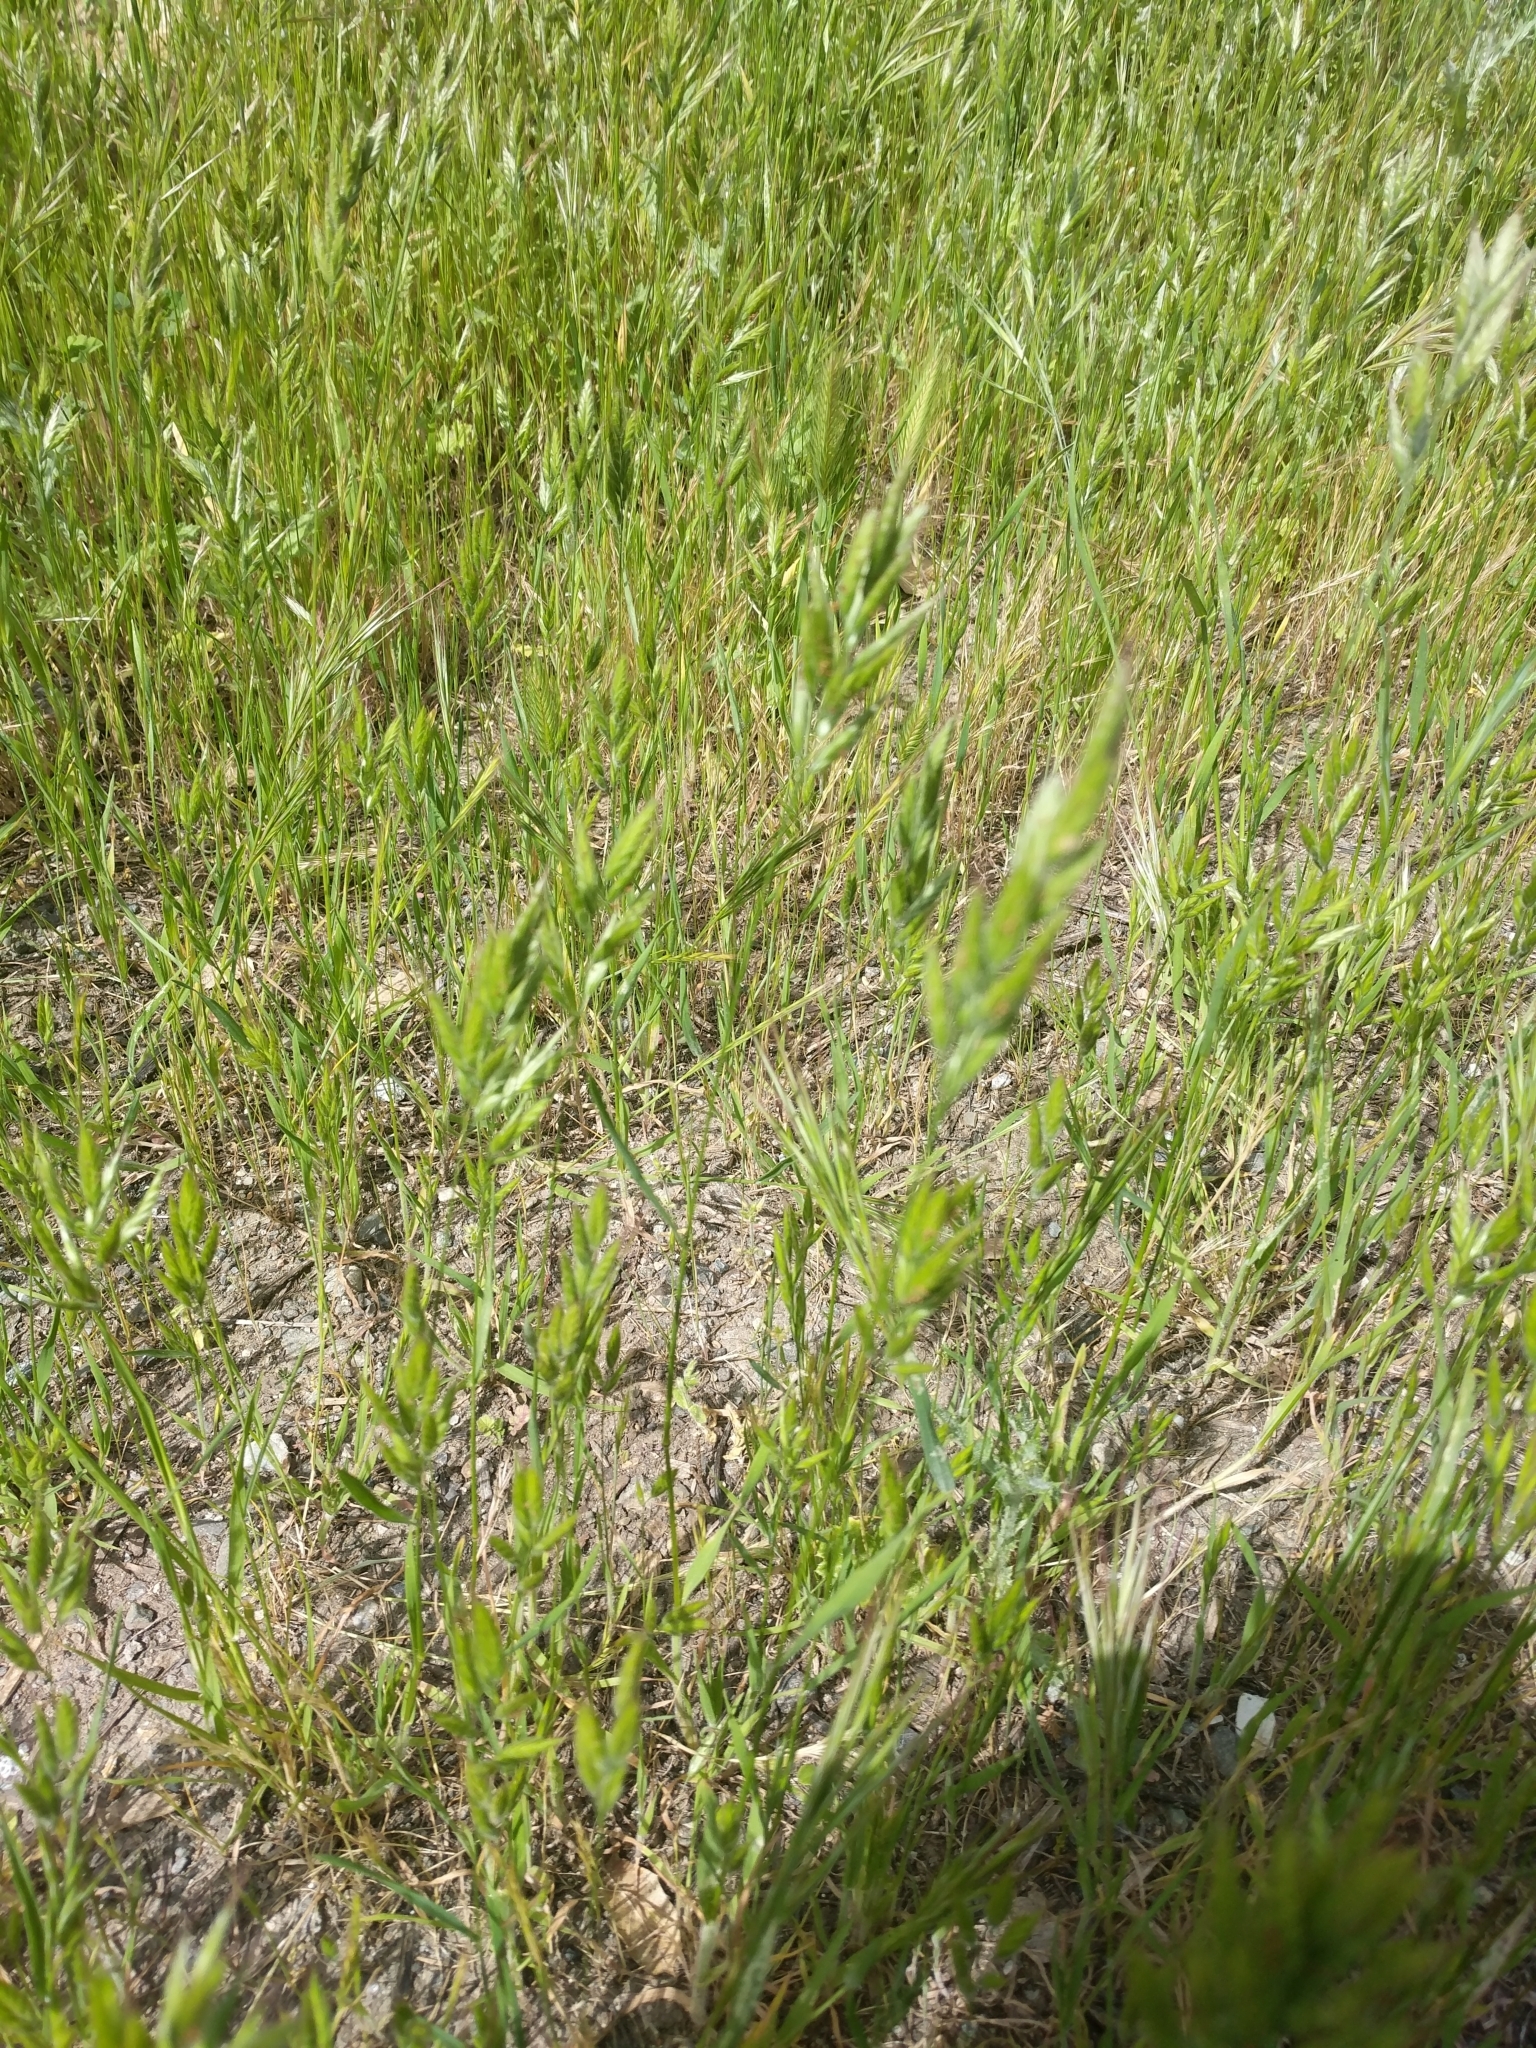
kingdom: Plantae
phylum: Tracheophyta
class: Liliopsida
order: Poales
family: Poaceae
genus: Bromus
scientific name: Bromus hordeaceus
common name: Soft brome
